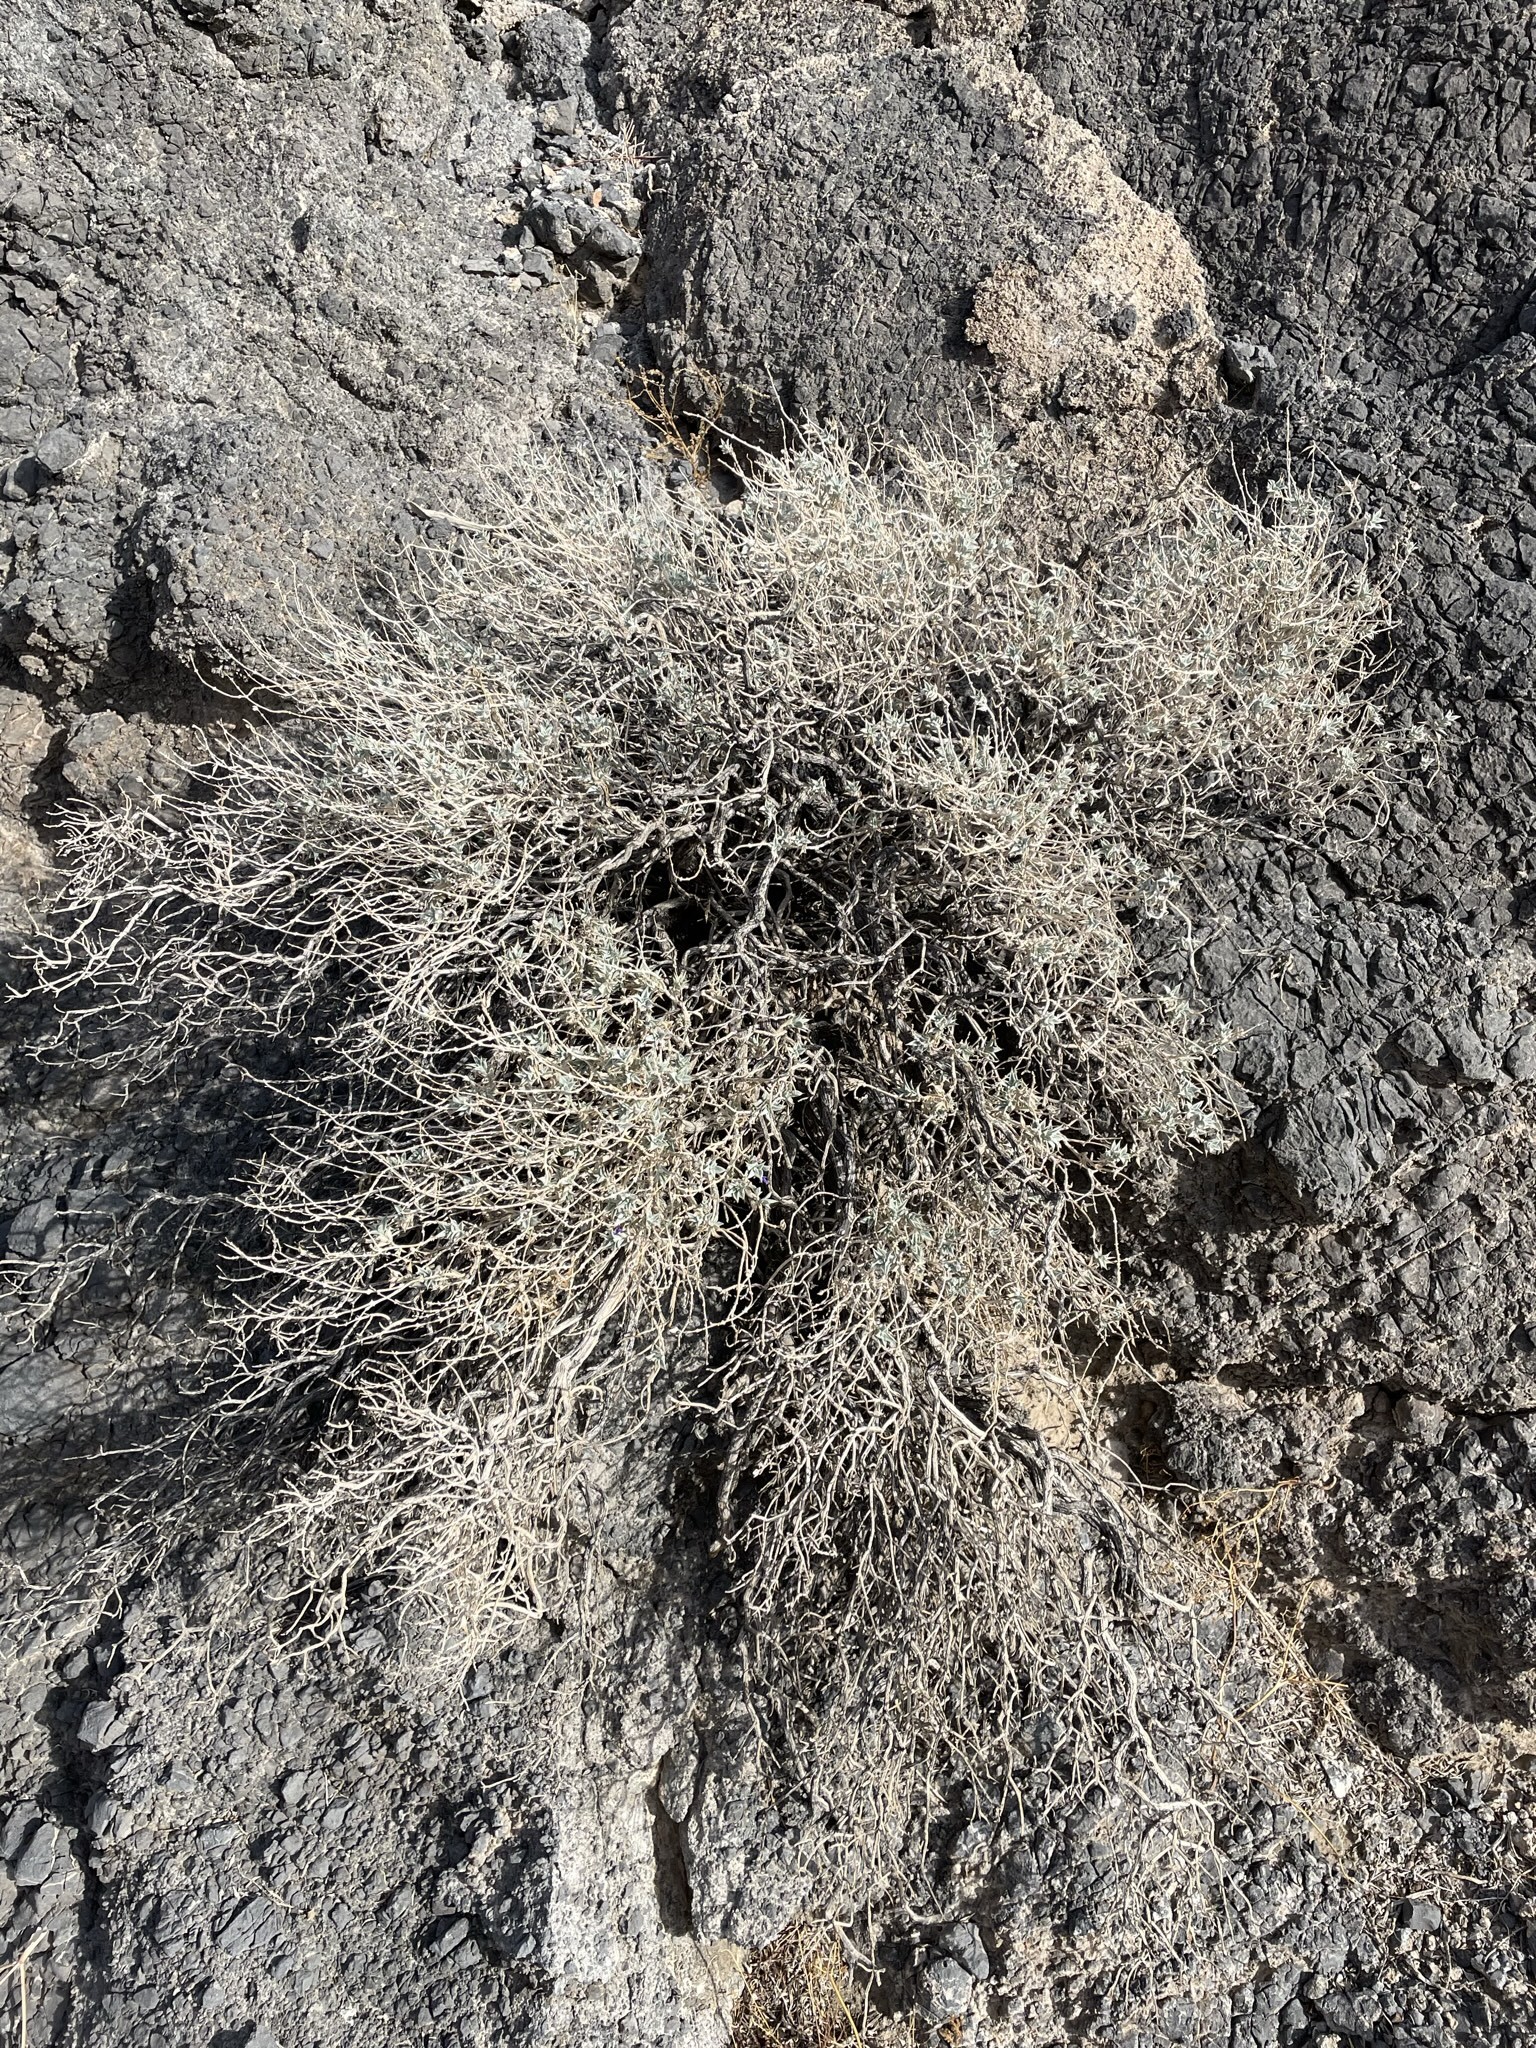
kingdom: Plantae
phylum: Tracheophyta
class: Magnoliopsida
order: Lamiales
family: Lamiaceae
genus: Salvia
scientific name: Salvia funerea
